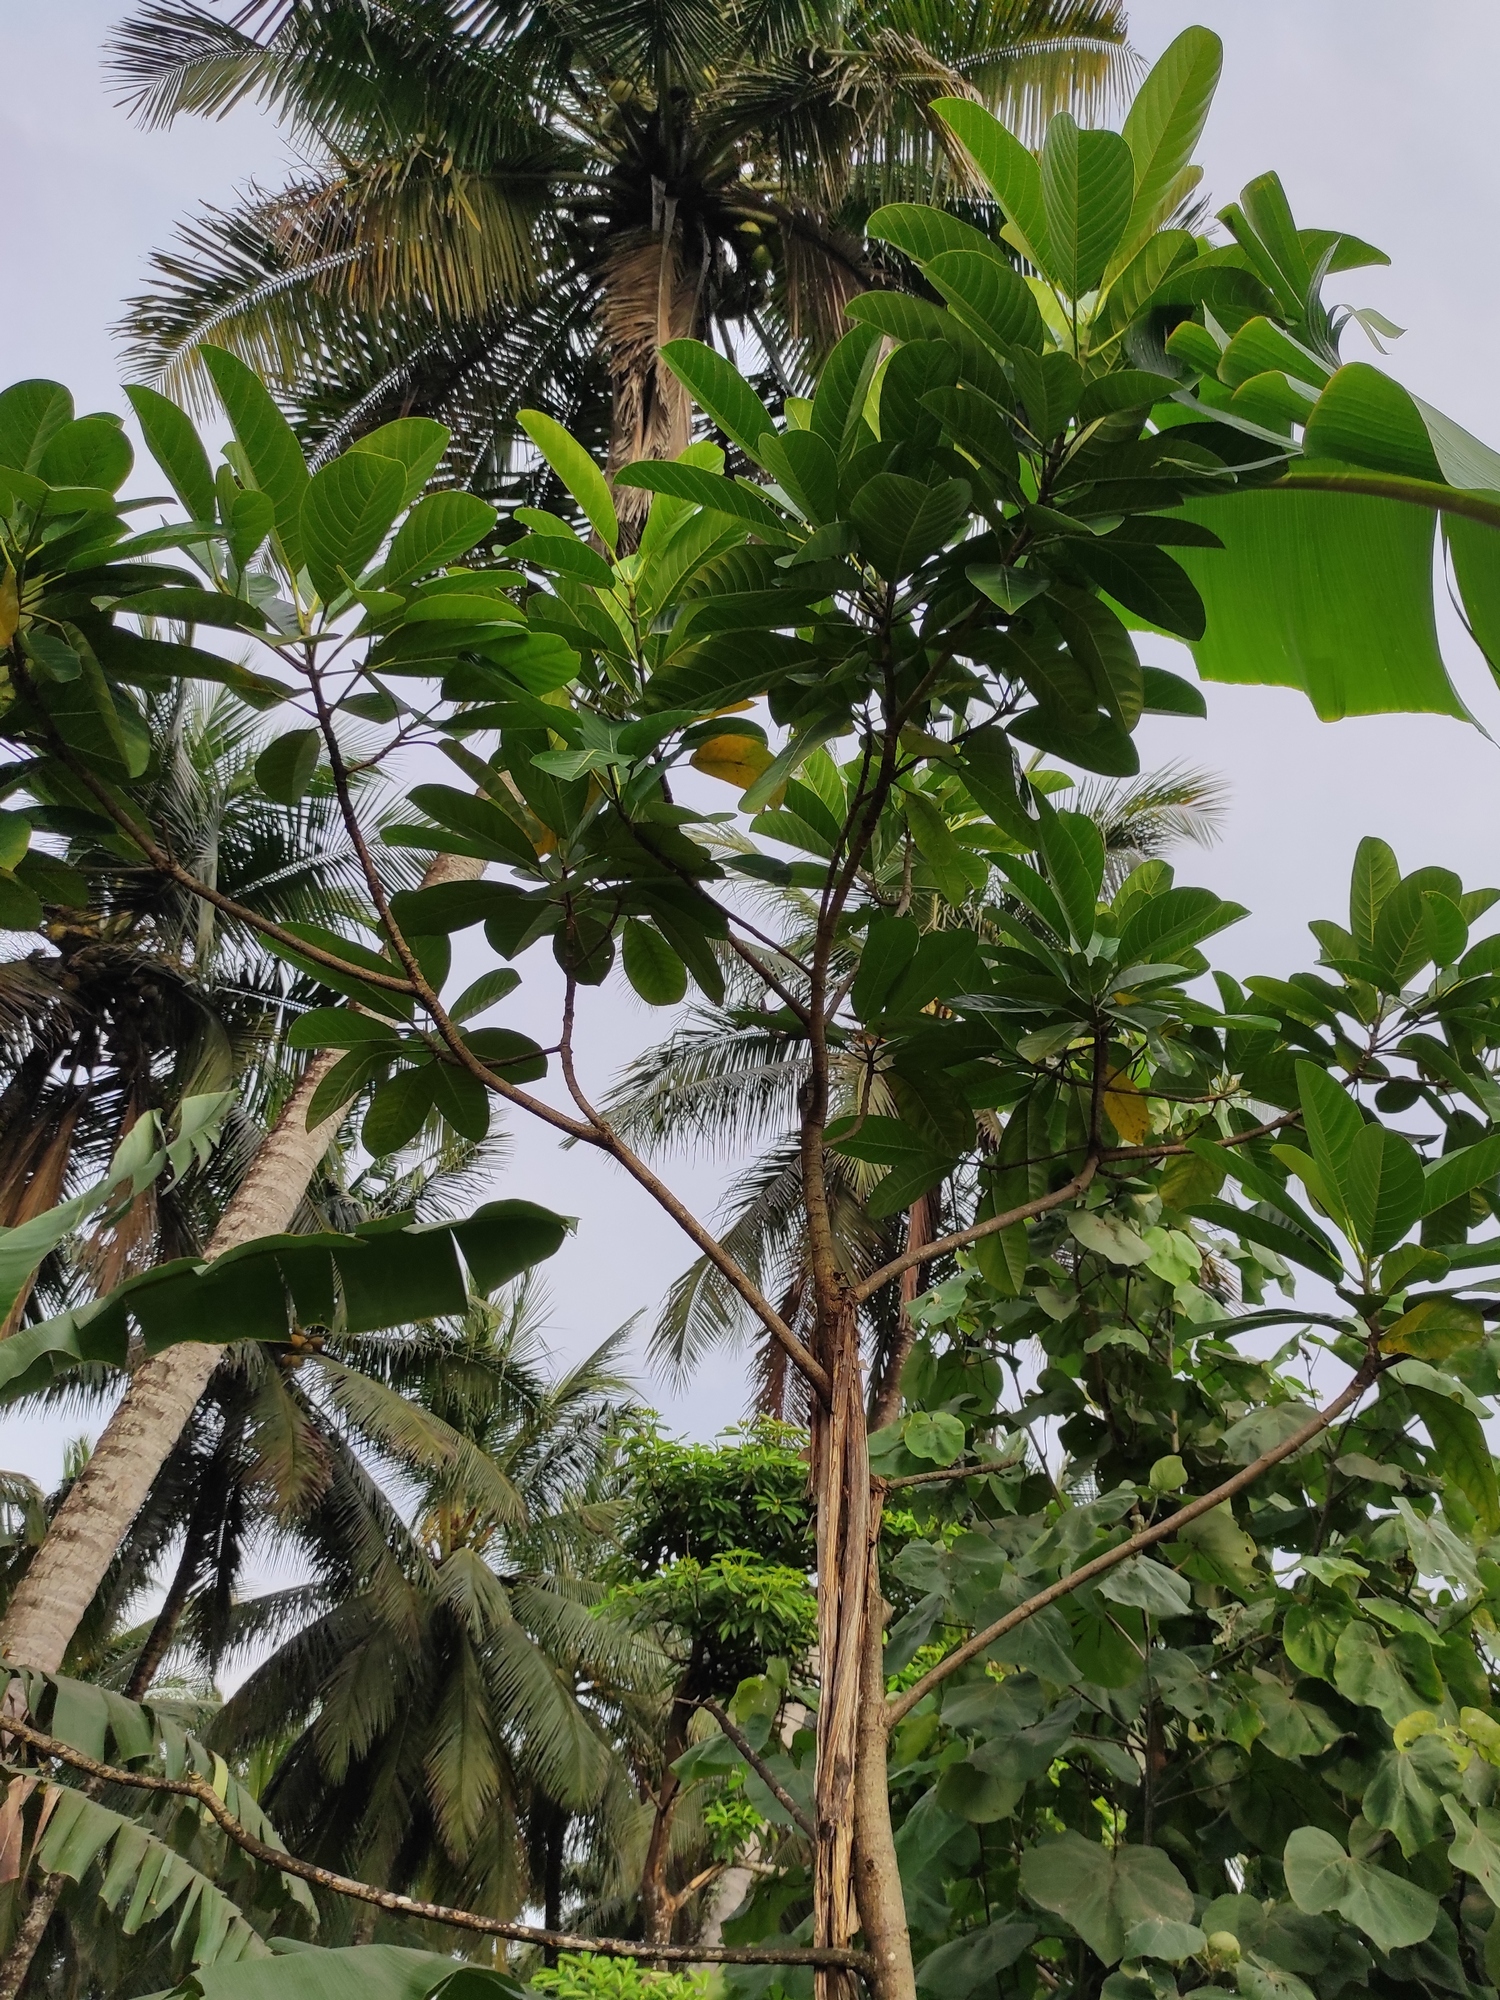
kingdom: Plantae
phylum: Tracheophyta
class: Magnoliopsida
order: Rosales
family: Moraceae
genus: Ficus
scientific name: Ficus callosa
